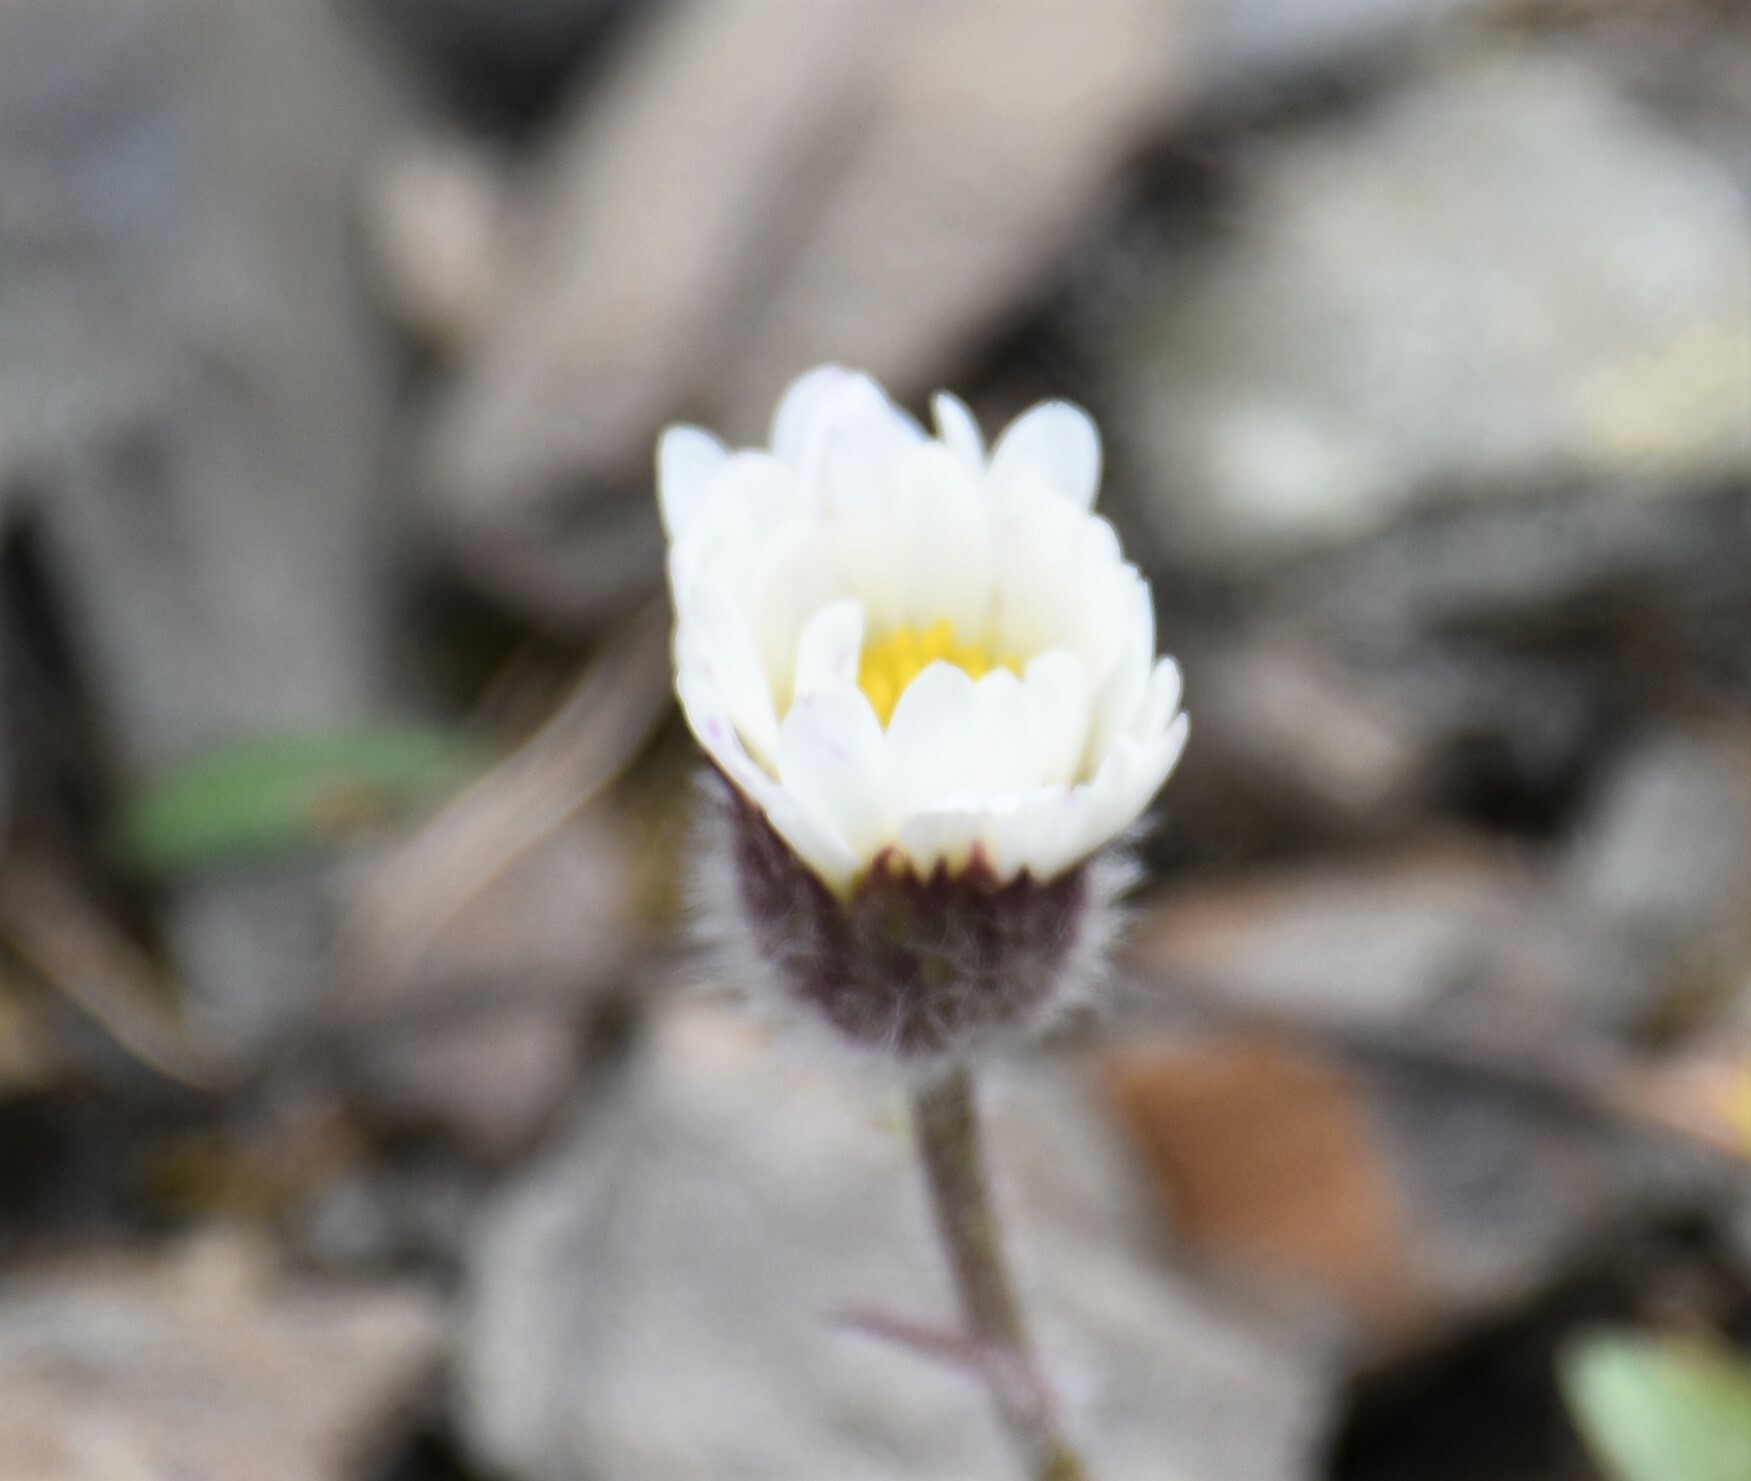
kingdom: Plantae
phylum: Tracheophyta
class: Magnoliopsida
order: Asterales
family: Asteraceae
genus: Erigeron
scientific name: Erigeron trifidus
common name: Alberta fleabane
